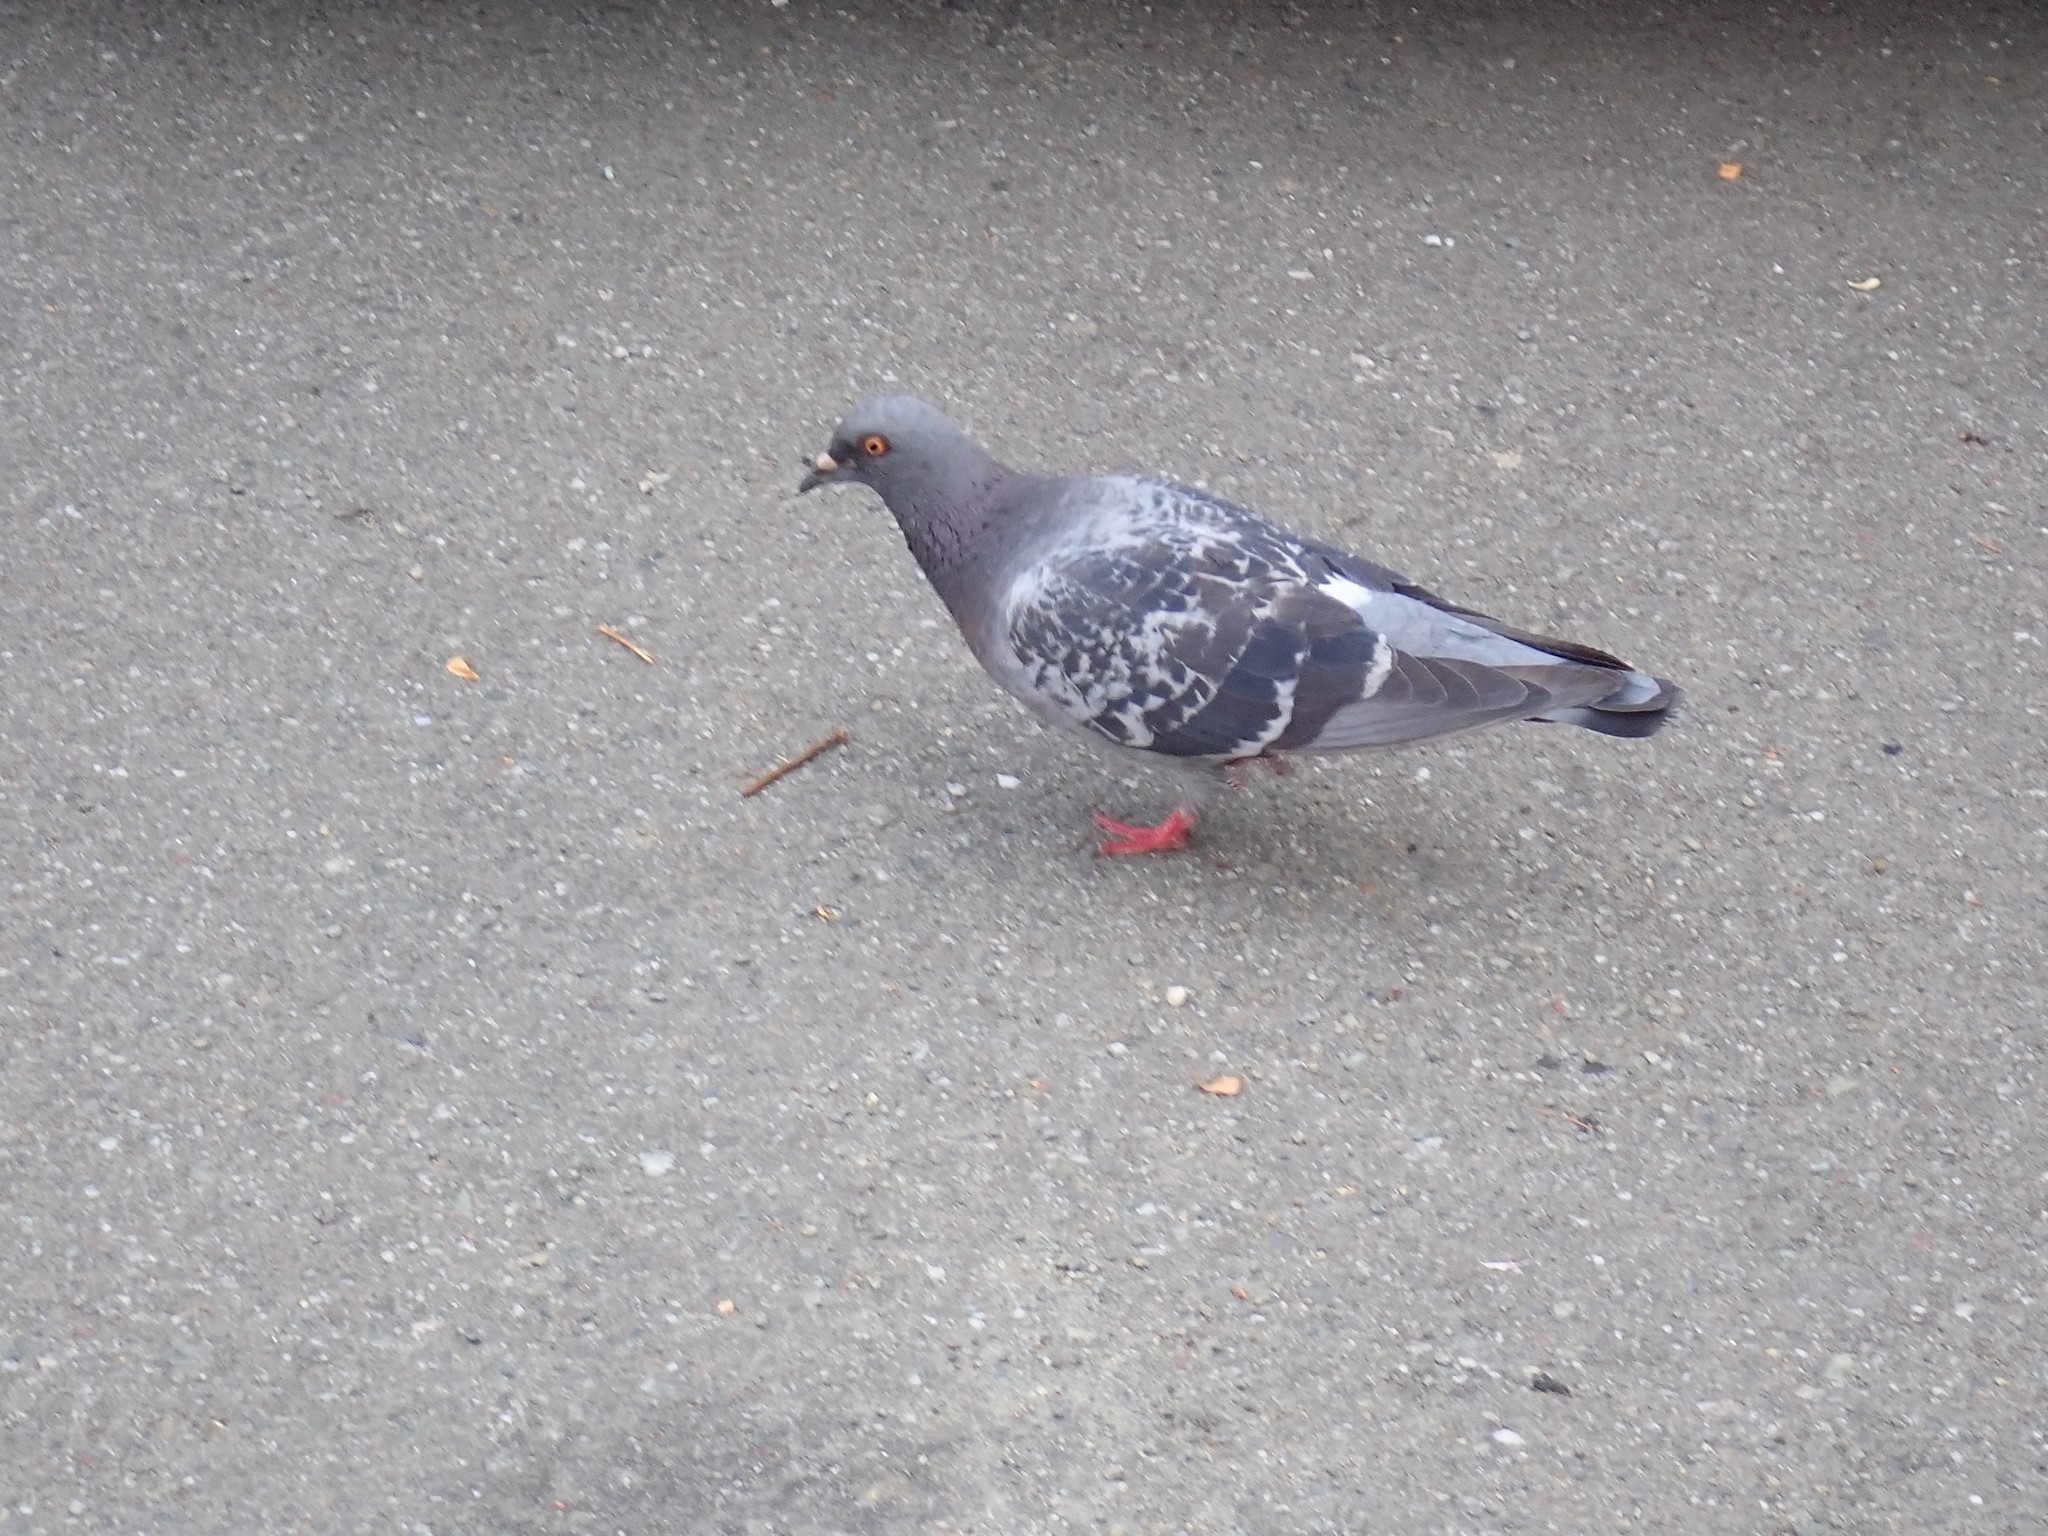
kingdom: Animalia
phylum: Chordata
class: Aves
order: Columbiformes
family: Columbidae
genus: Columba
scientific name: Columba livia
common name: Rock pigeon
